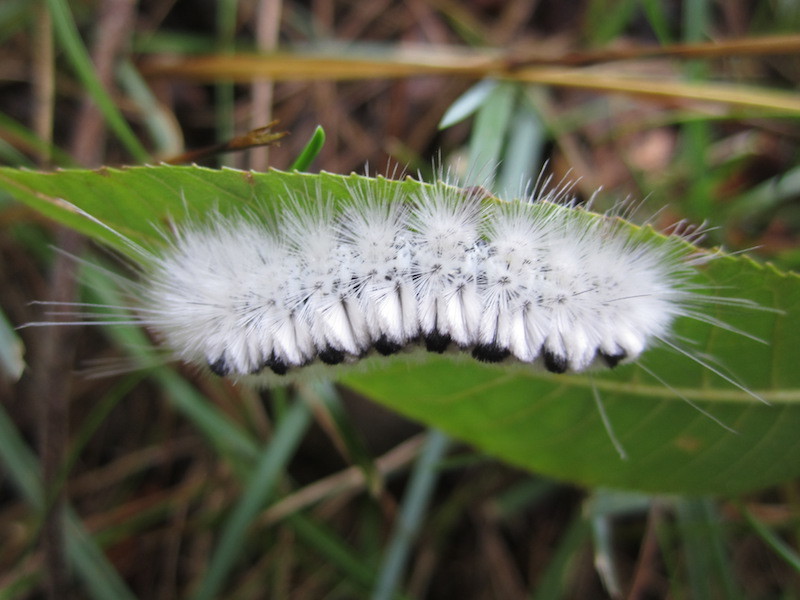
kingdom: Animalia
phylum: Arthropoda
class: Insecta
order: Lepidoptera
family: Erebidae
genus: Lophocampa
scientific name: Lophocampa caryae
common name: Hickory tussock moth
